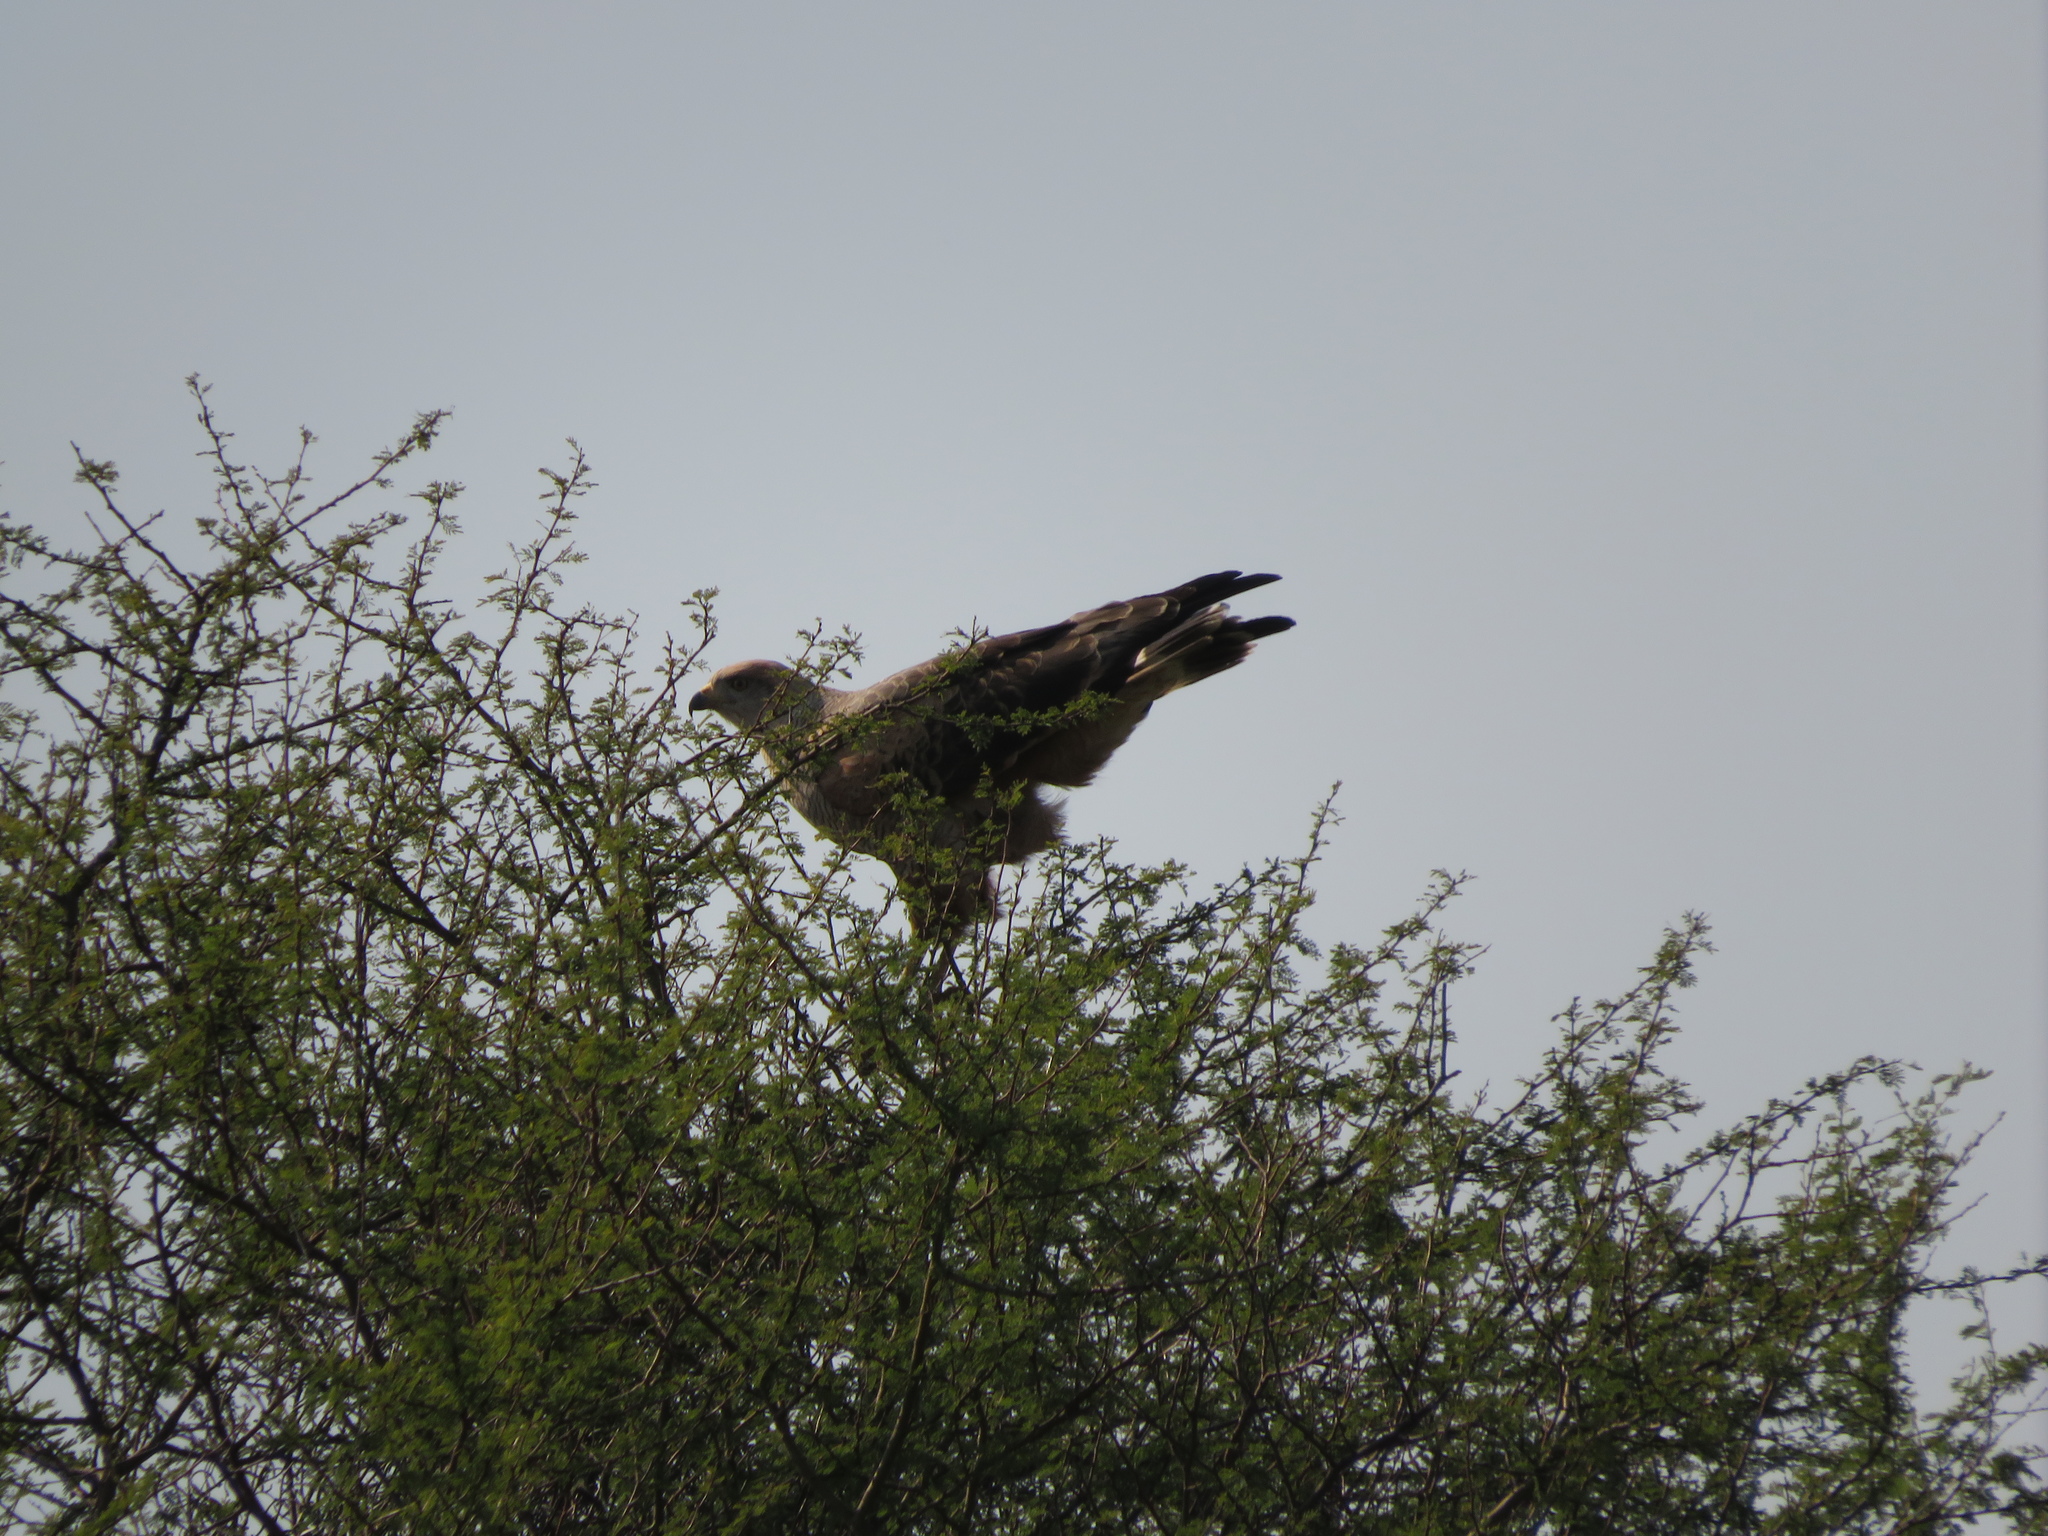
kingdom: Animalia
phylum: Chordata
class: Aves
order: Accipitriformes
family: Accipitridae
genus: Buteogallus
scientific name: Buteogallus meridionalis
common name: Savanna hawk
